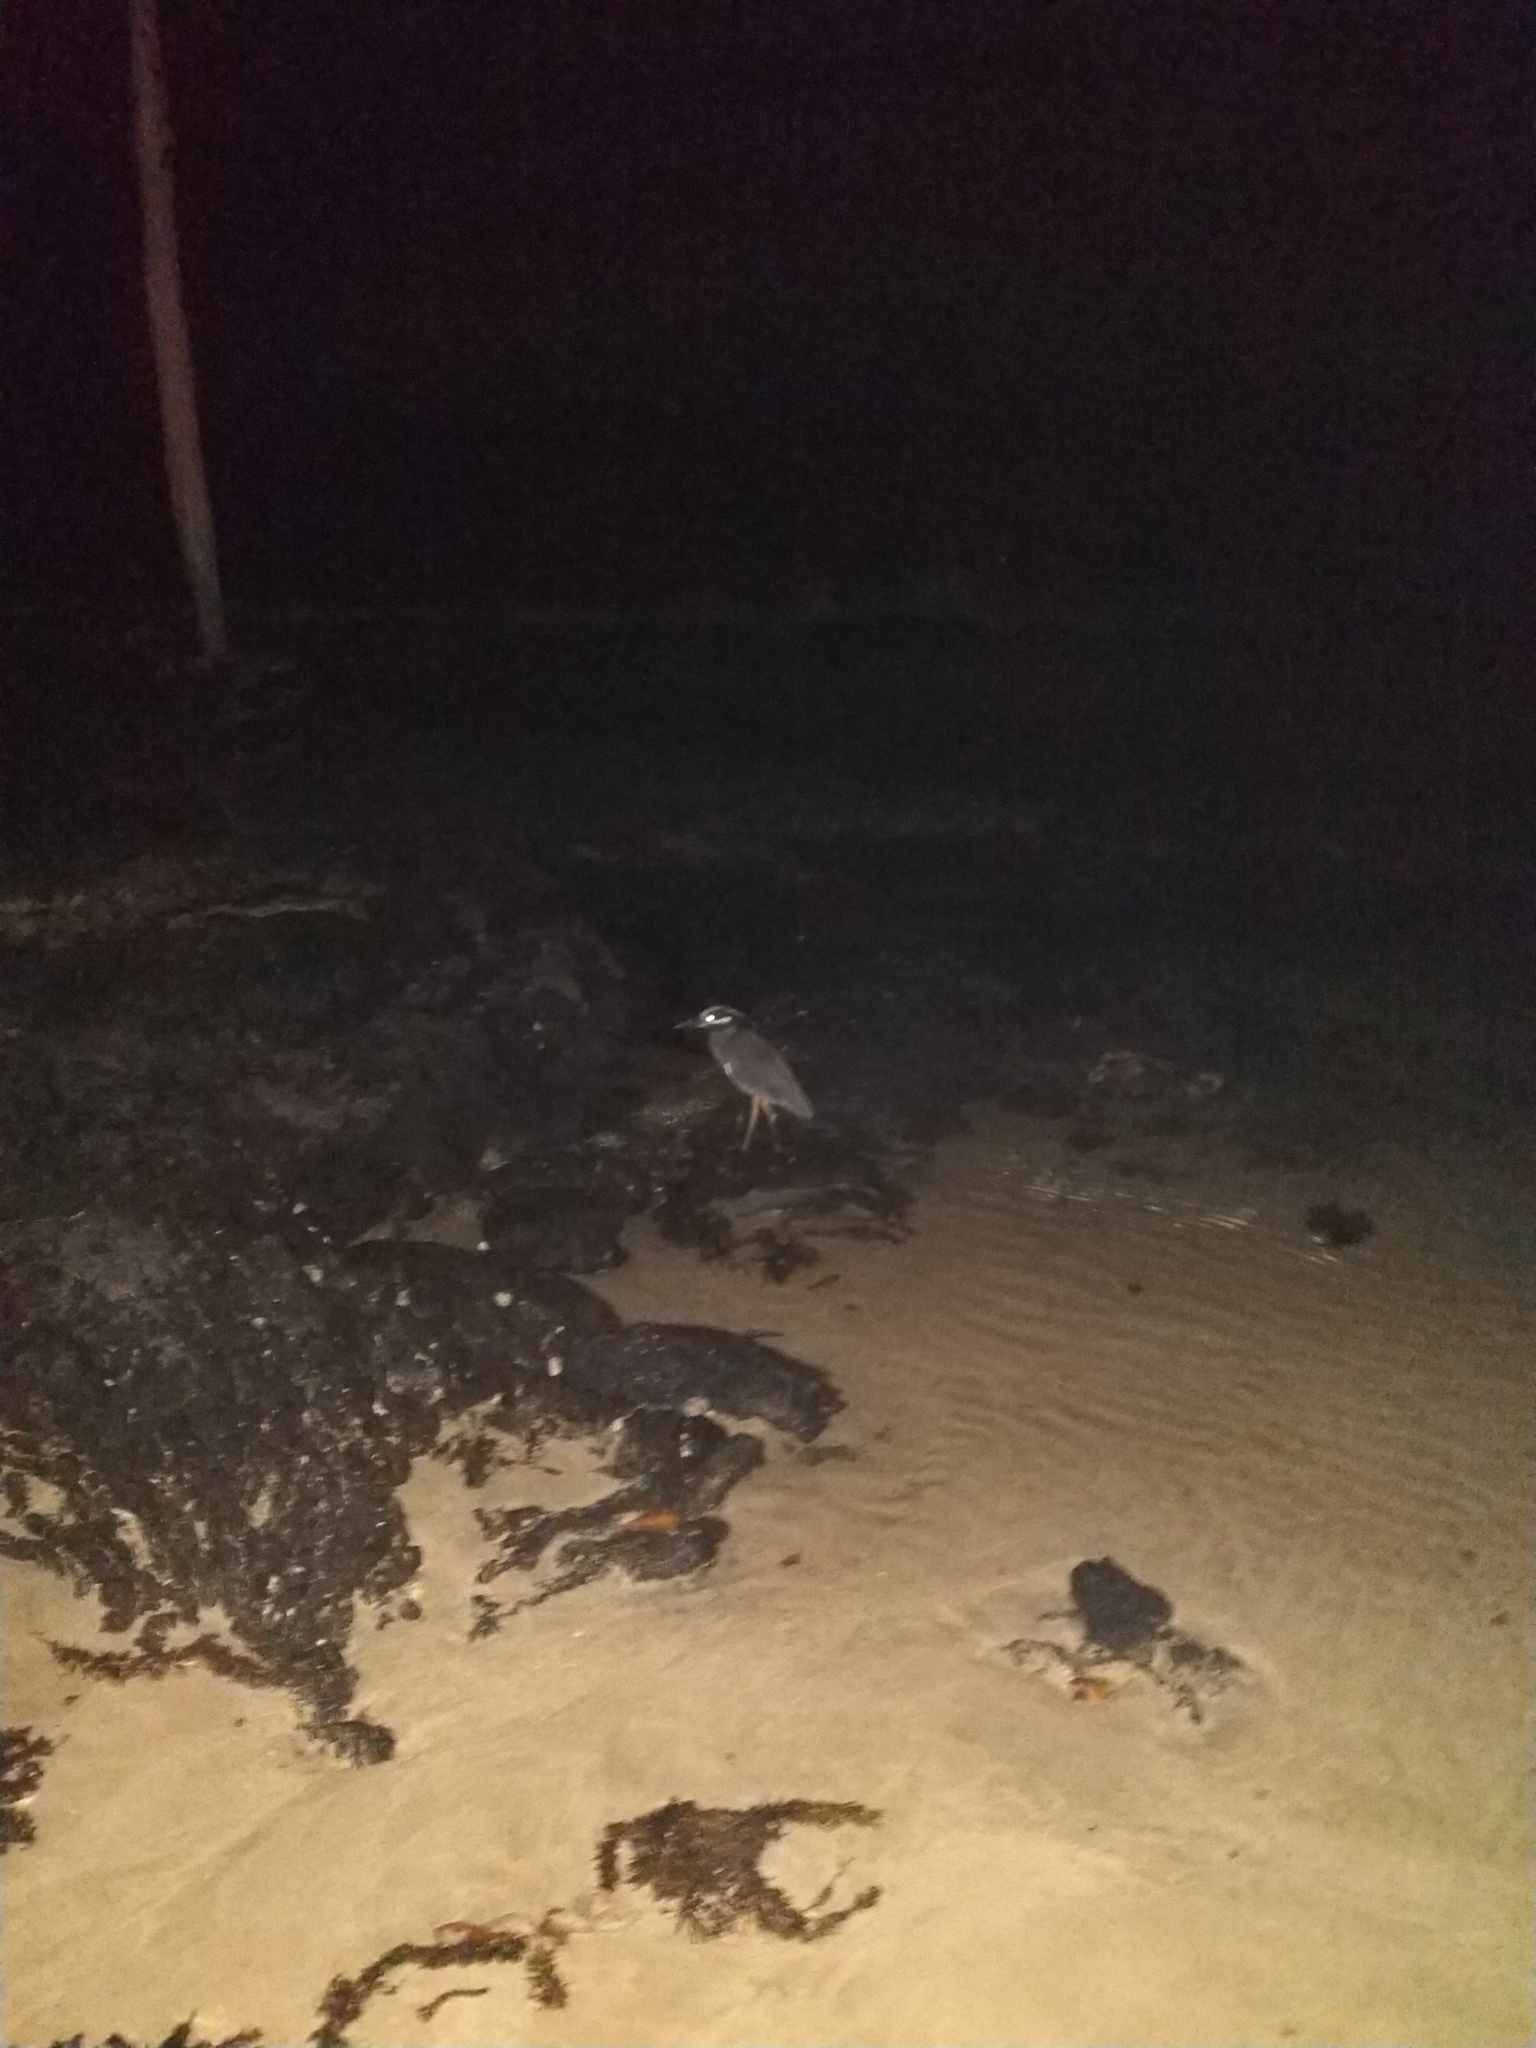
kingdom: Animalia
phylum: Chordata
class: Aves
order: Pelecaniformes
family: Ardeidae
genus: Nyctanassa
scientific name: Nyctanassa violacea
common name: Yellow-crowned night heron
